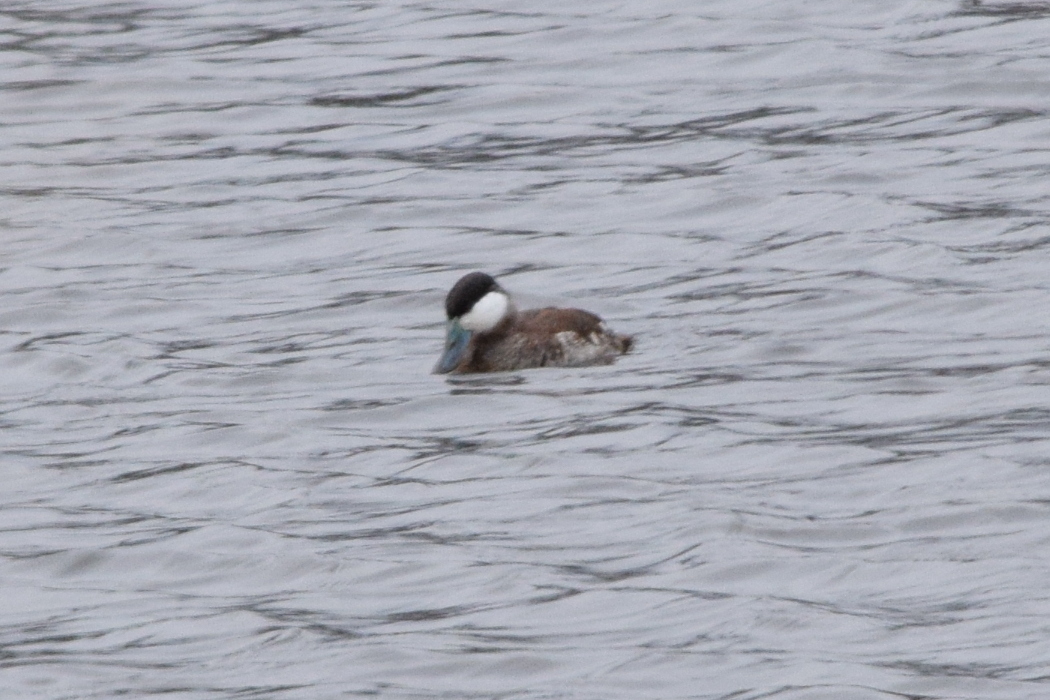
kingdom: Animalia
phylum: Chordata
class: Aves
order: Anseriformes
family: Anatidae
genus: Oxyura
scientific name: Oxyura jamaicensis
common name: Ruddy duck
